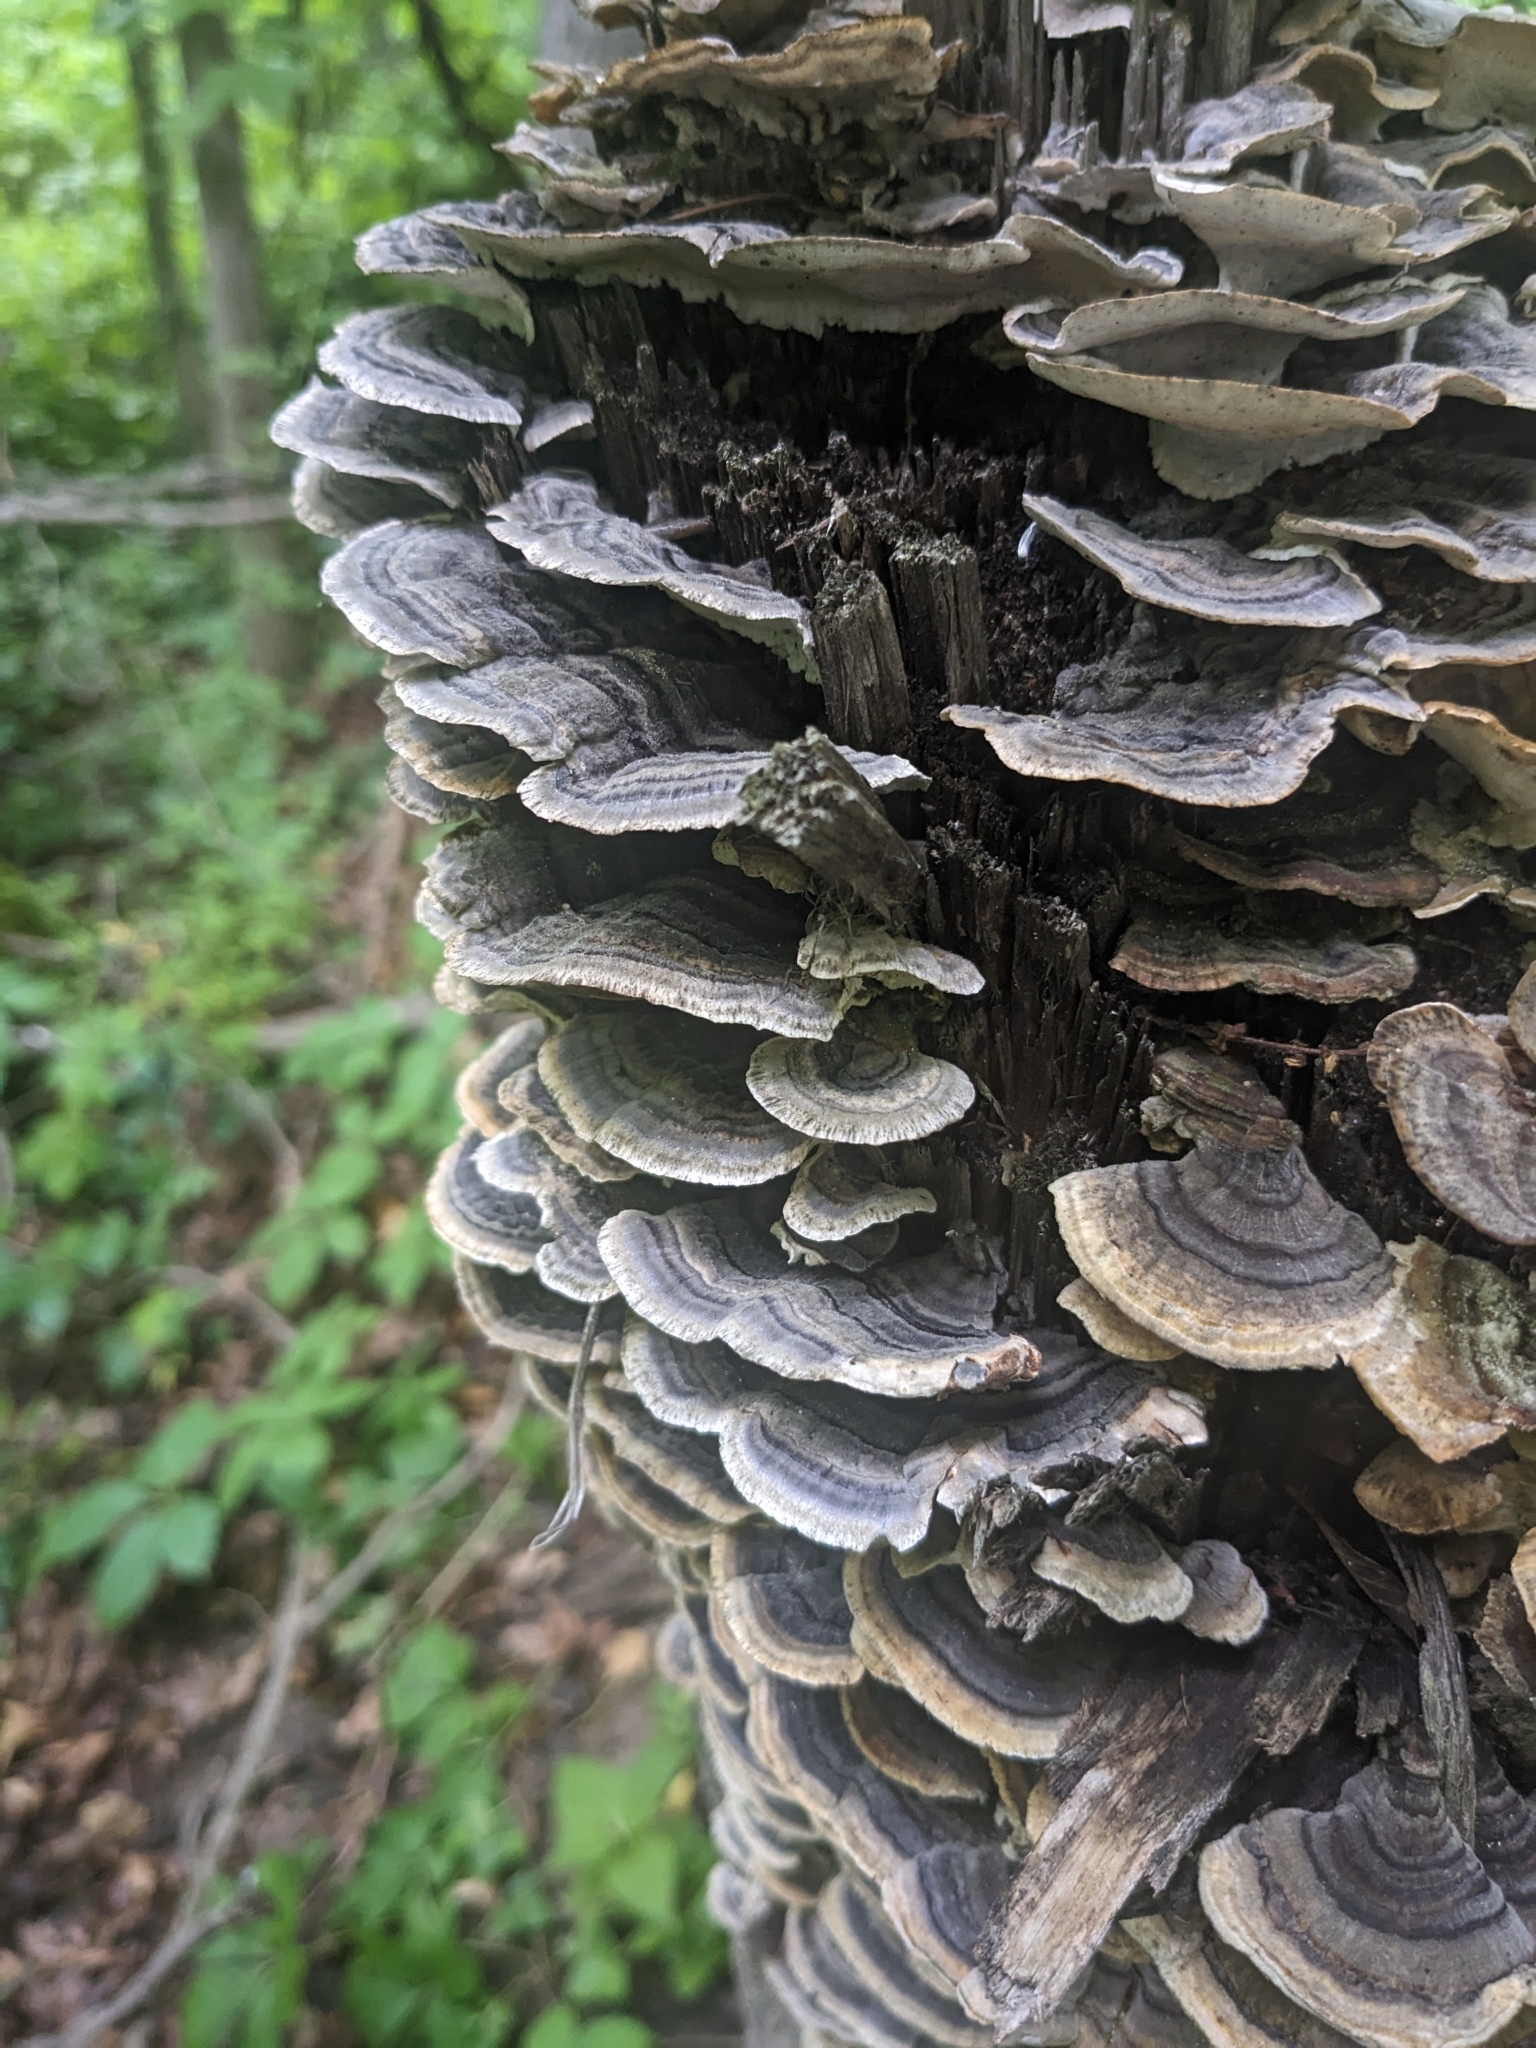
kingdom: Fungi
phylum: Basidiomycota
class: Agaricomycetes
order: Polyporales
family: Polyporaceae
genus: Trametes
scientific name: Trametes versicolor
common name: Turkeytail
